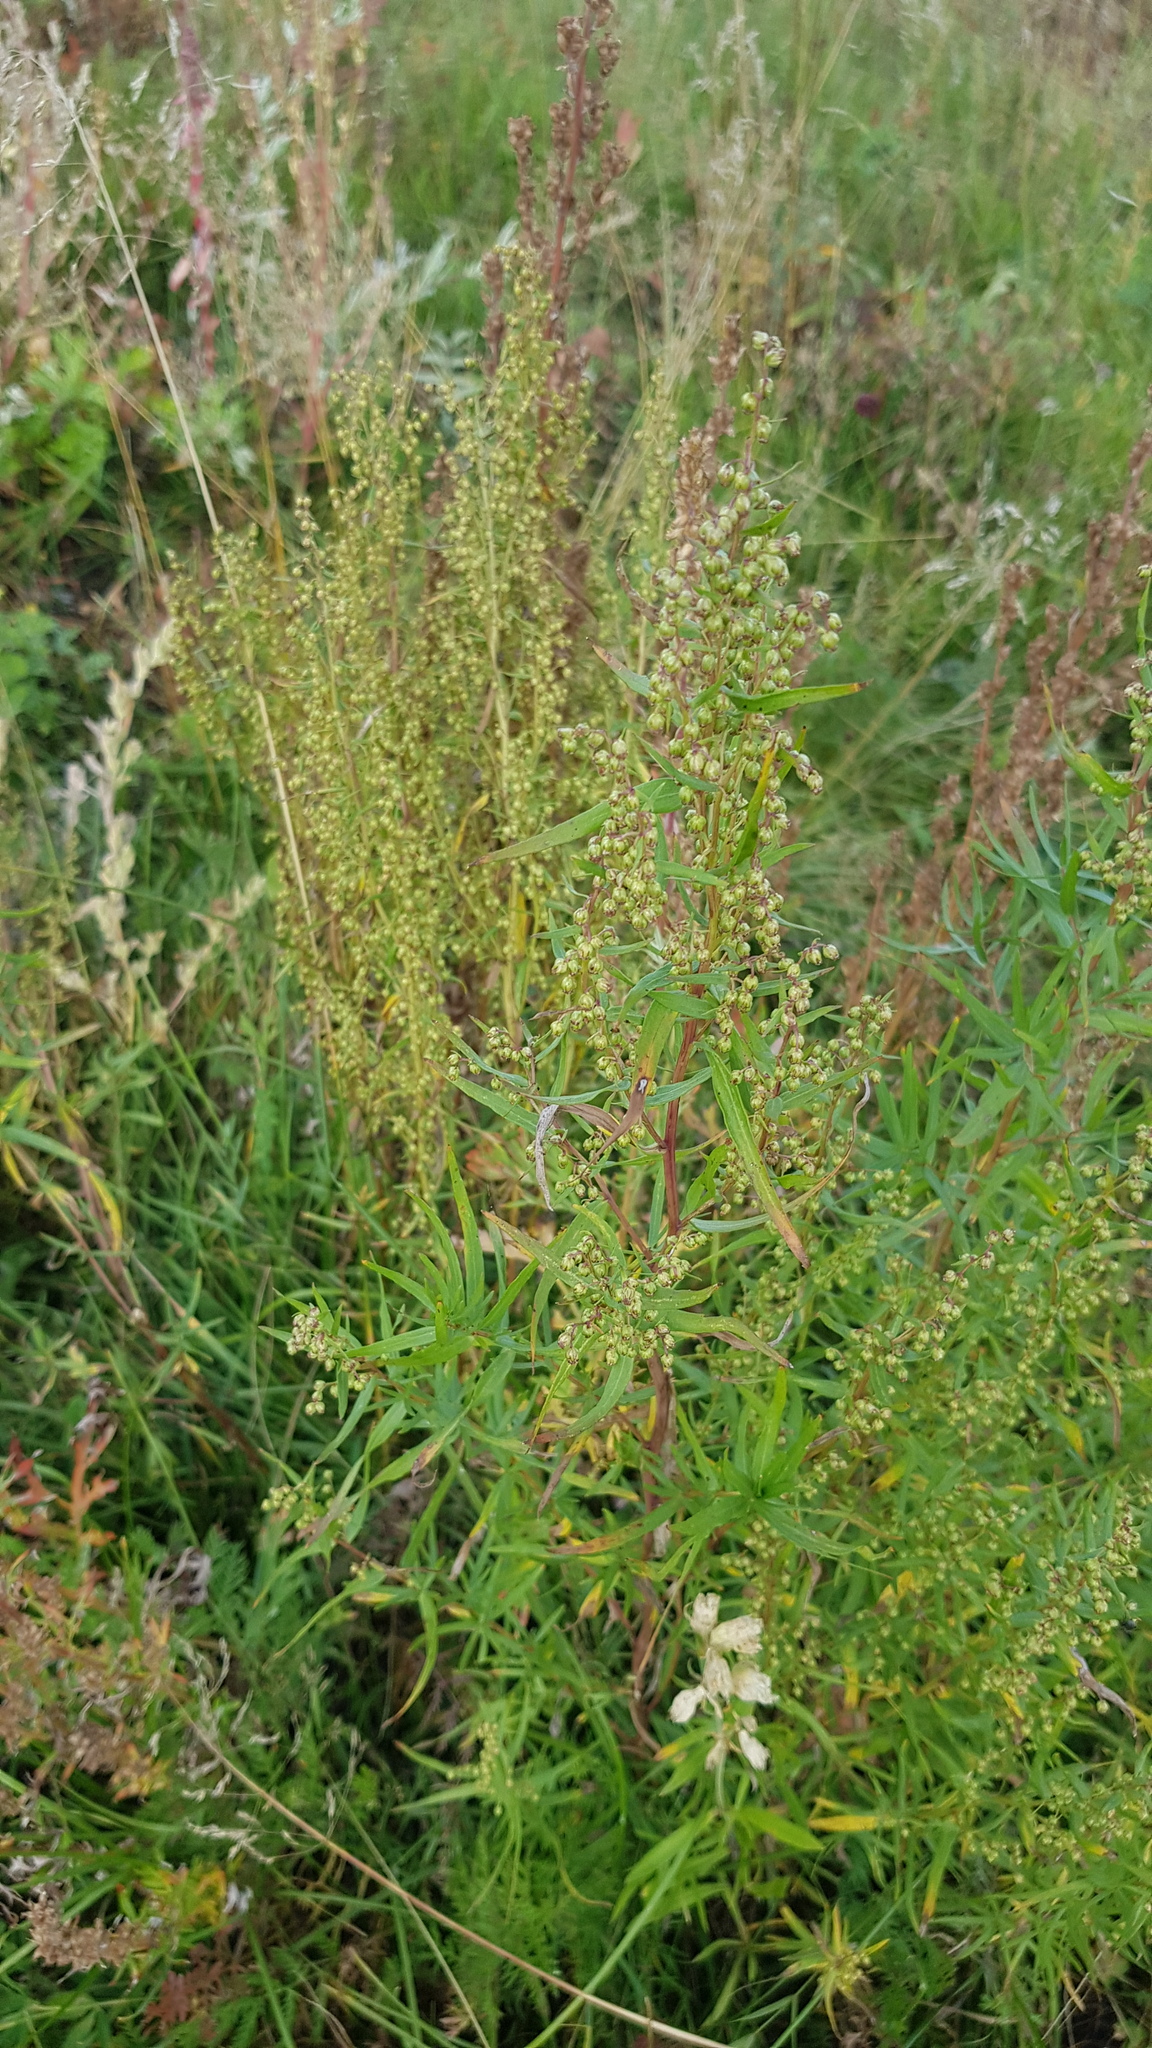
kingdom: Plantae
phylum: Tracheophyta
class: Magnoliopsida
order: Asterales
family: Asteraceae
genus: Artemisia
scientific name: Artemisia dracunculus
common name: Tarragon
